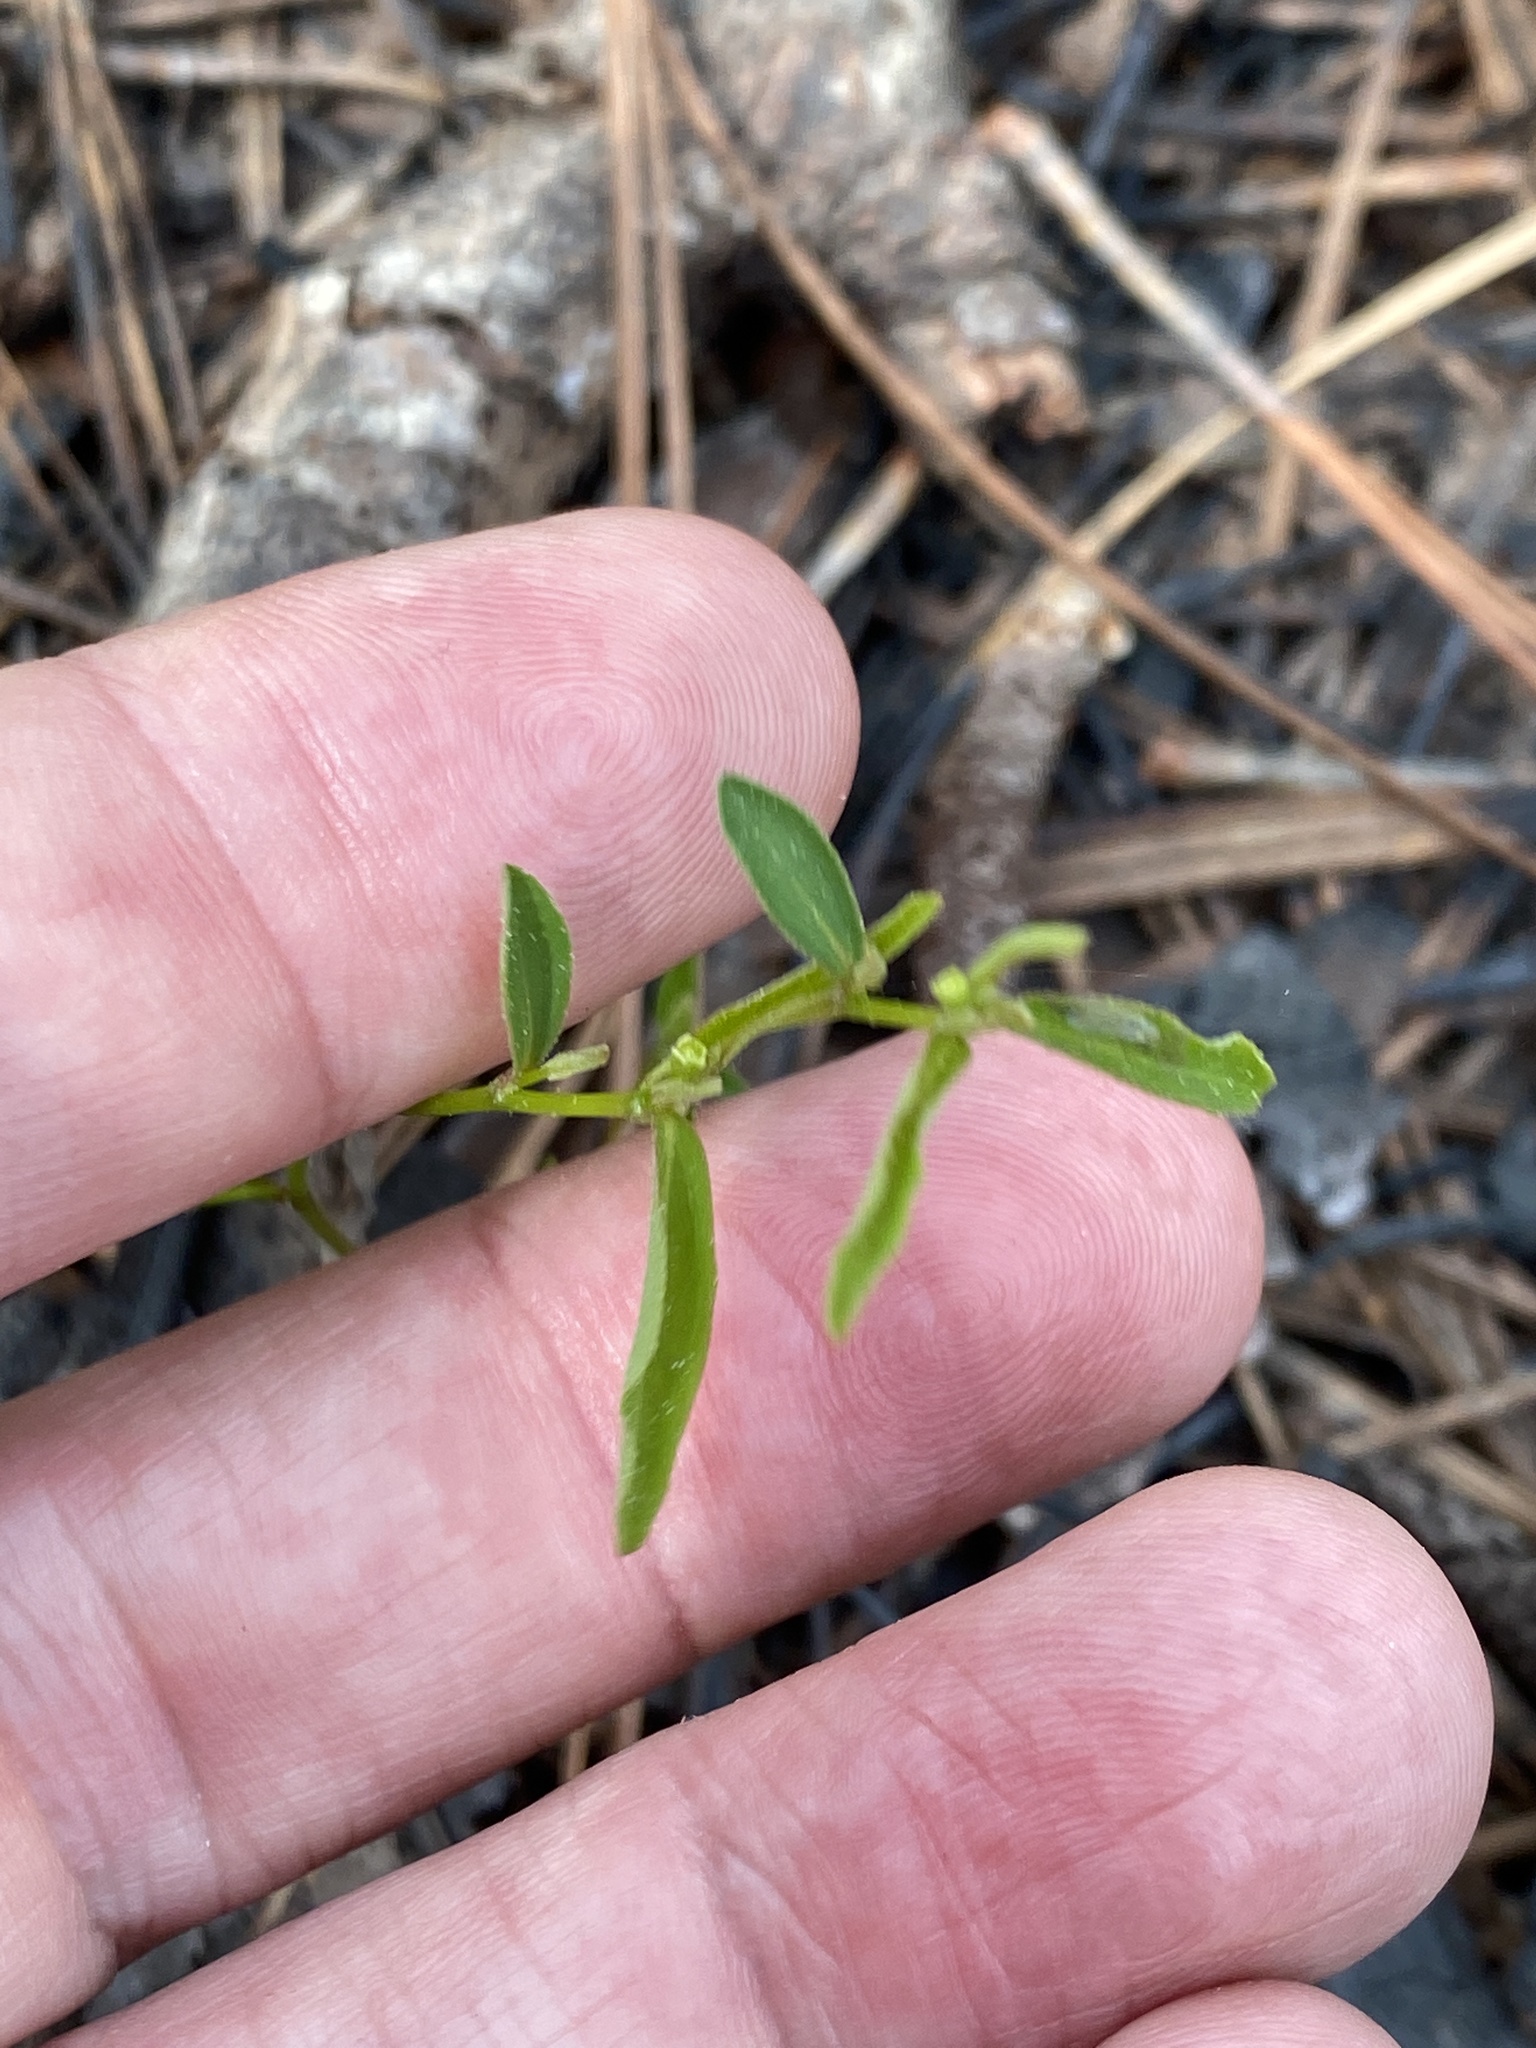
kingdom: Plantae
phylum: Tracheophyta
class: Magnoliopsida
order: Malpighiales
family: Euphorbiaceae
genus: Euphorbia
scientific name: Euphorbia curtisii
